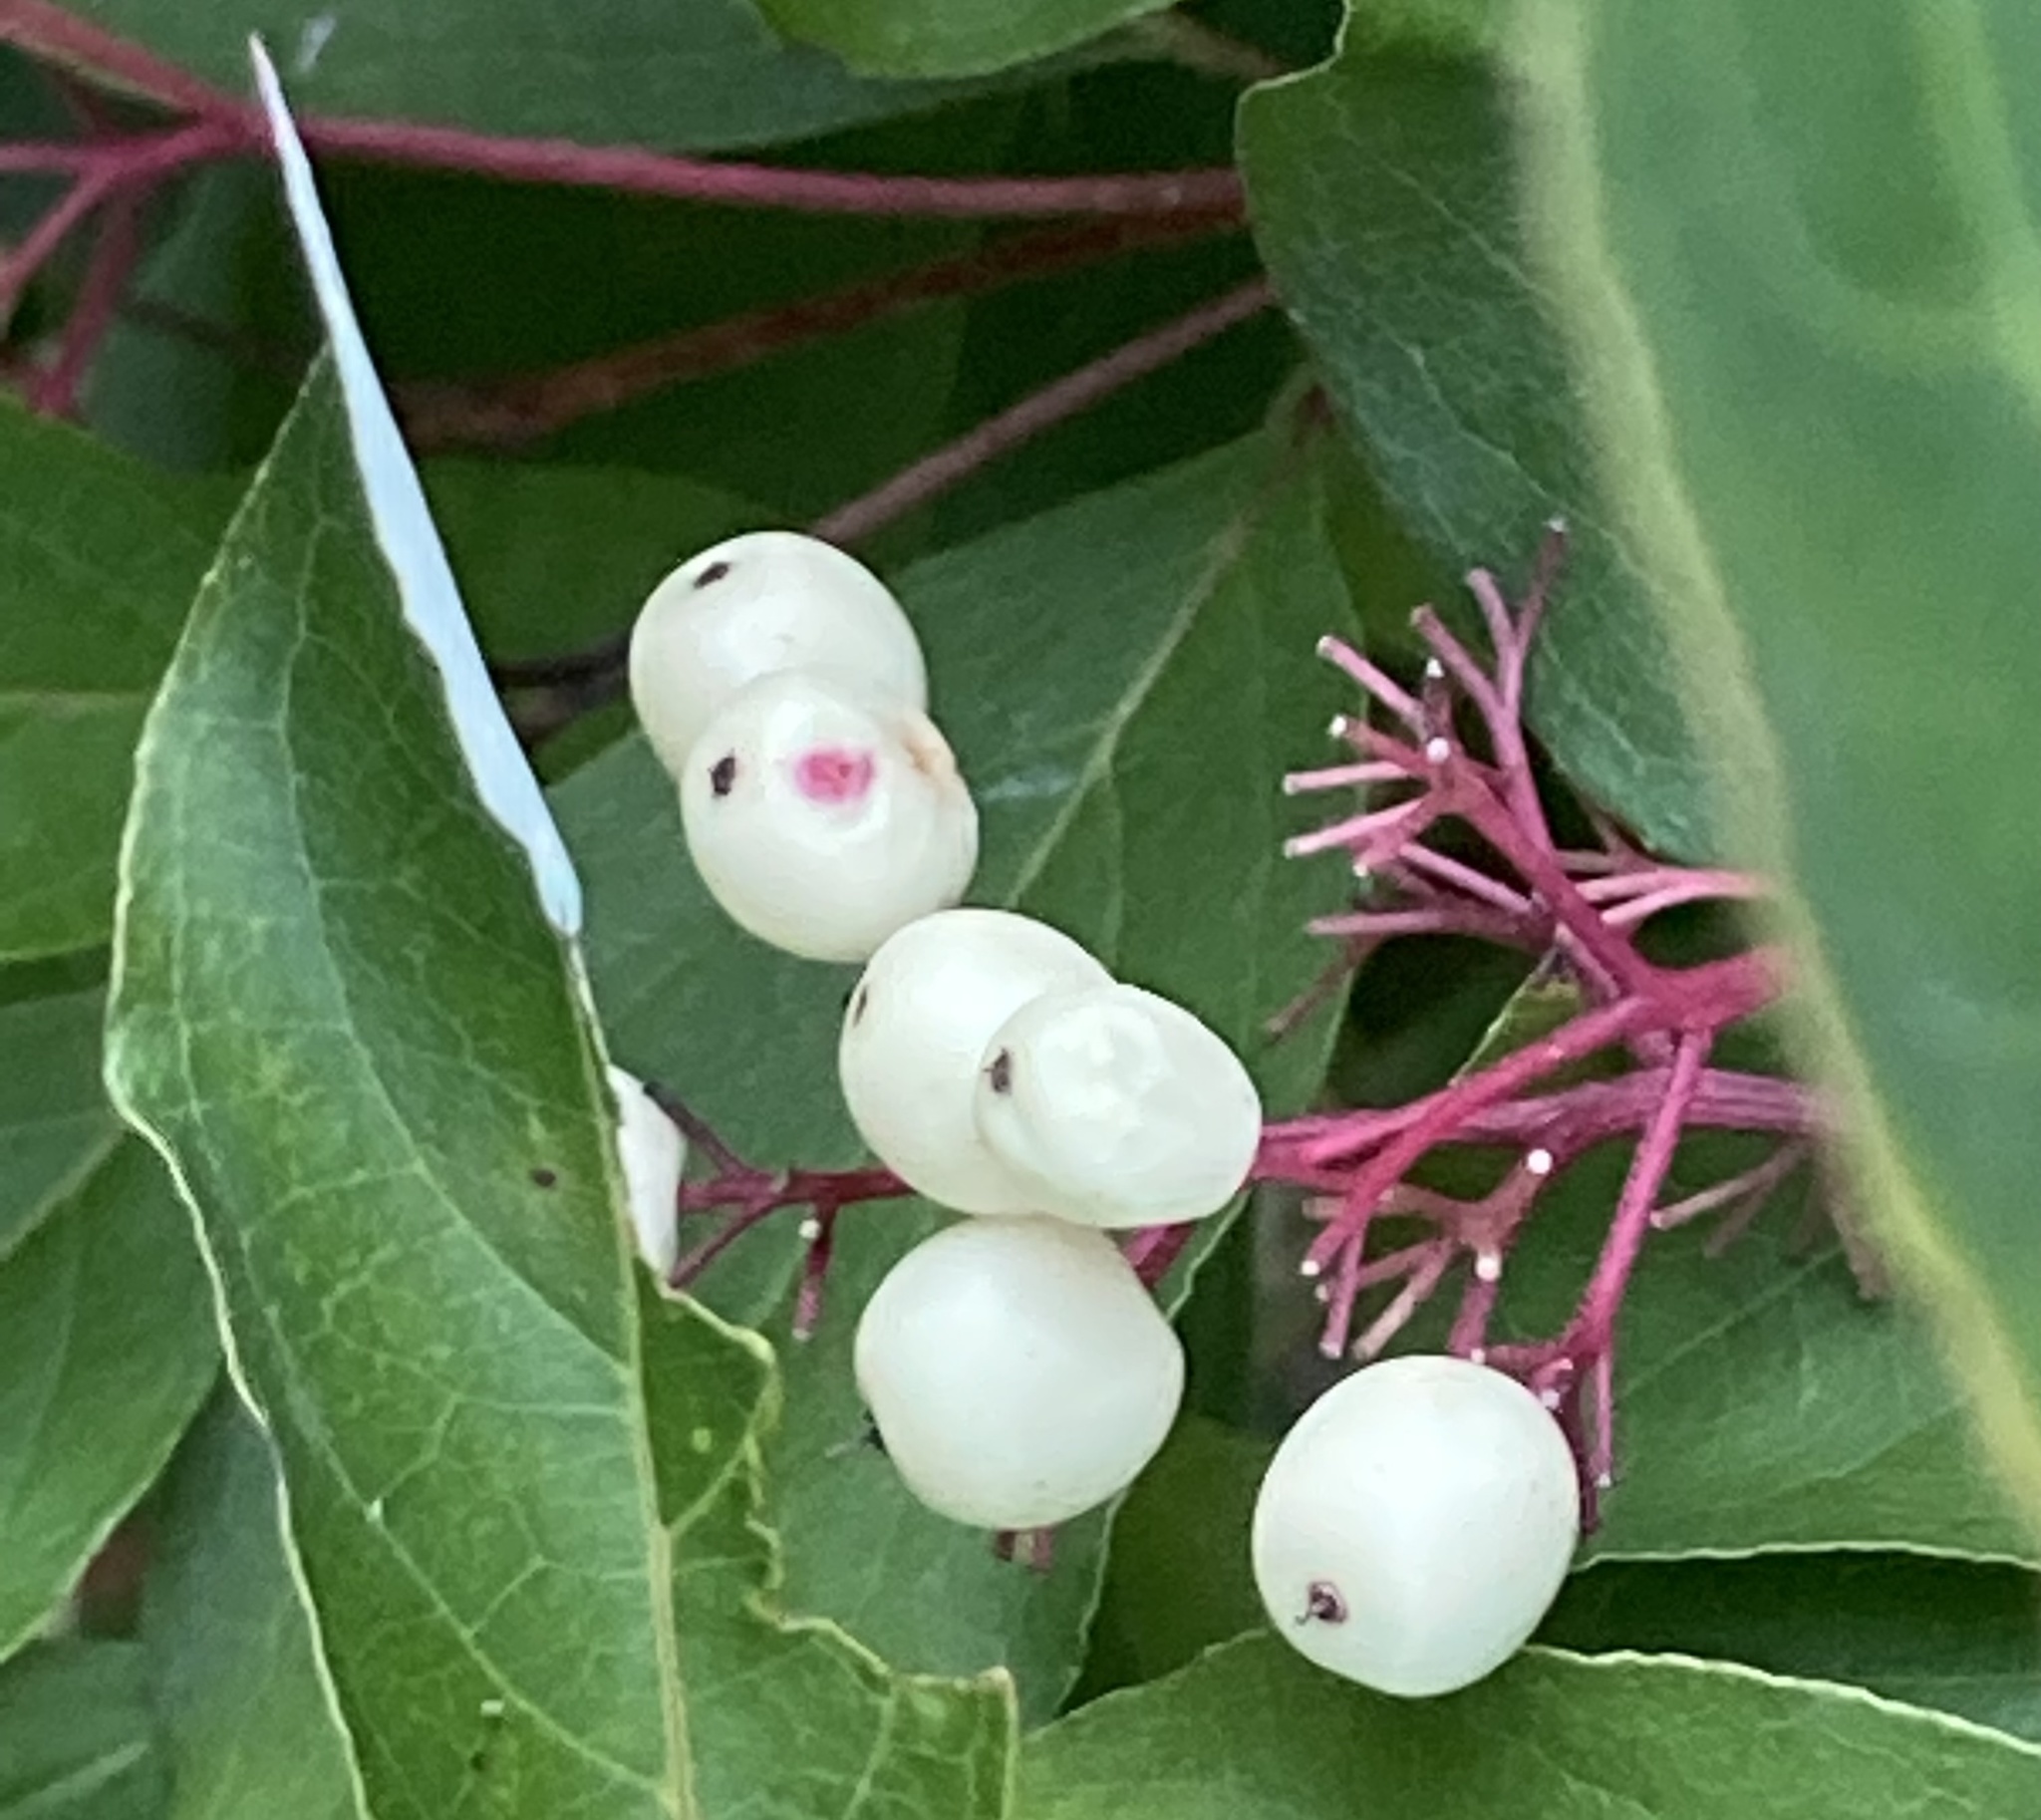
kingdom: Plantae
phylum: Tracheophyta
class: Magnoliopsida
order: Cornales
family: Cornaceae
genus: Cornus
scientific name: Cornus racemosa
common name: Panicled dogwood
